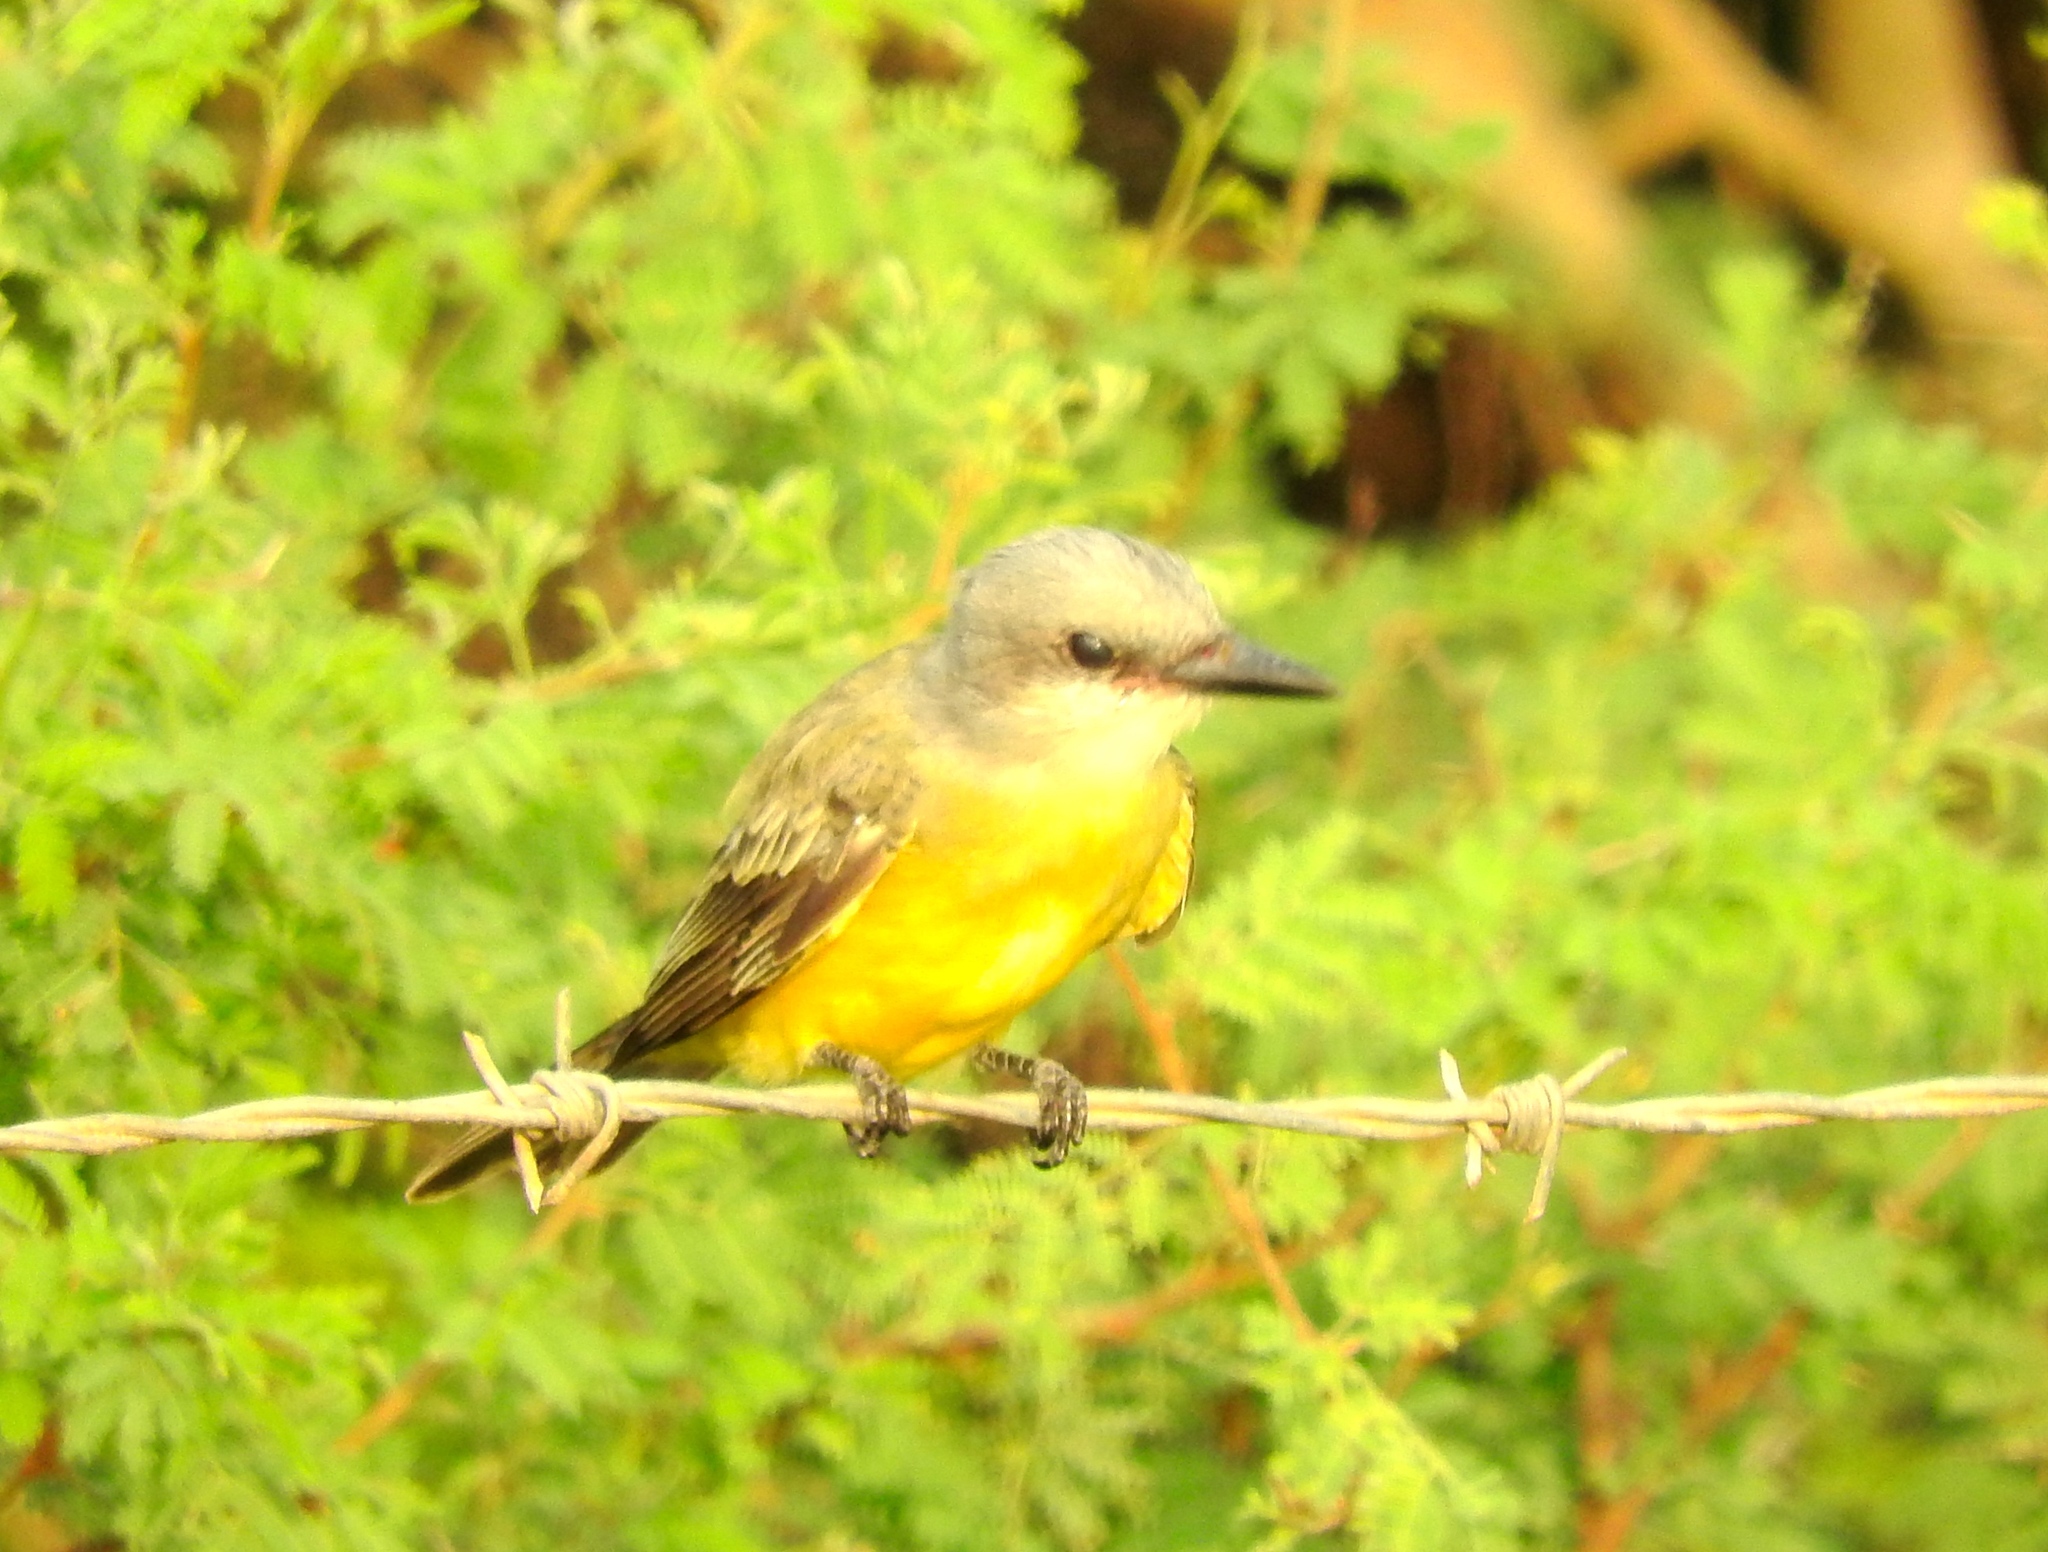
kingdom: Animalia
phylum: Chordata
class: Aves
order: Passeriformes
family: Tyrannidae
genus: Tyrannus
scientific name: Tyrannus melancholicus
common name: Tropical kingbird
